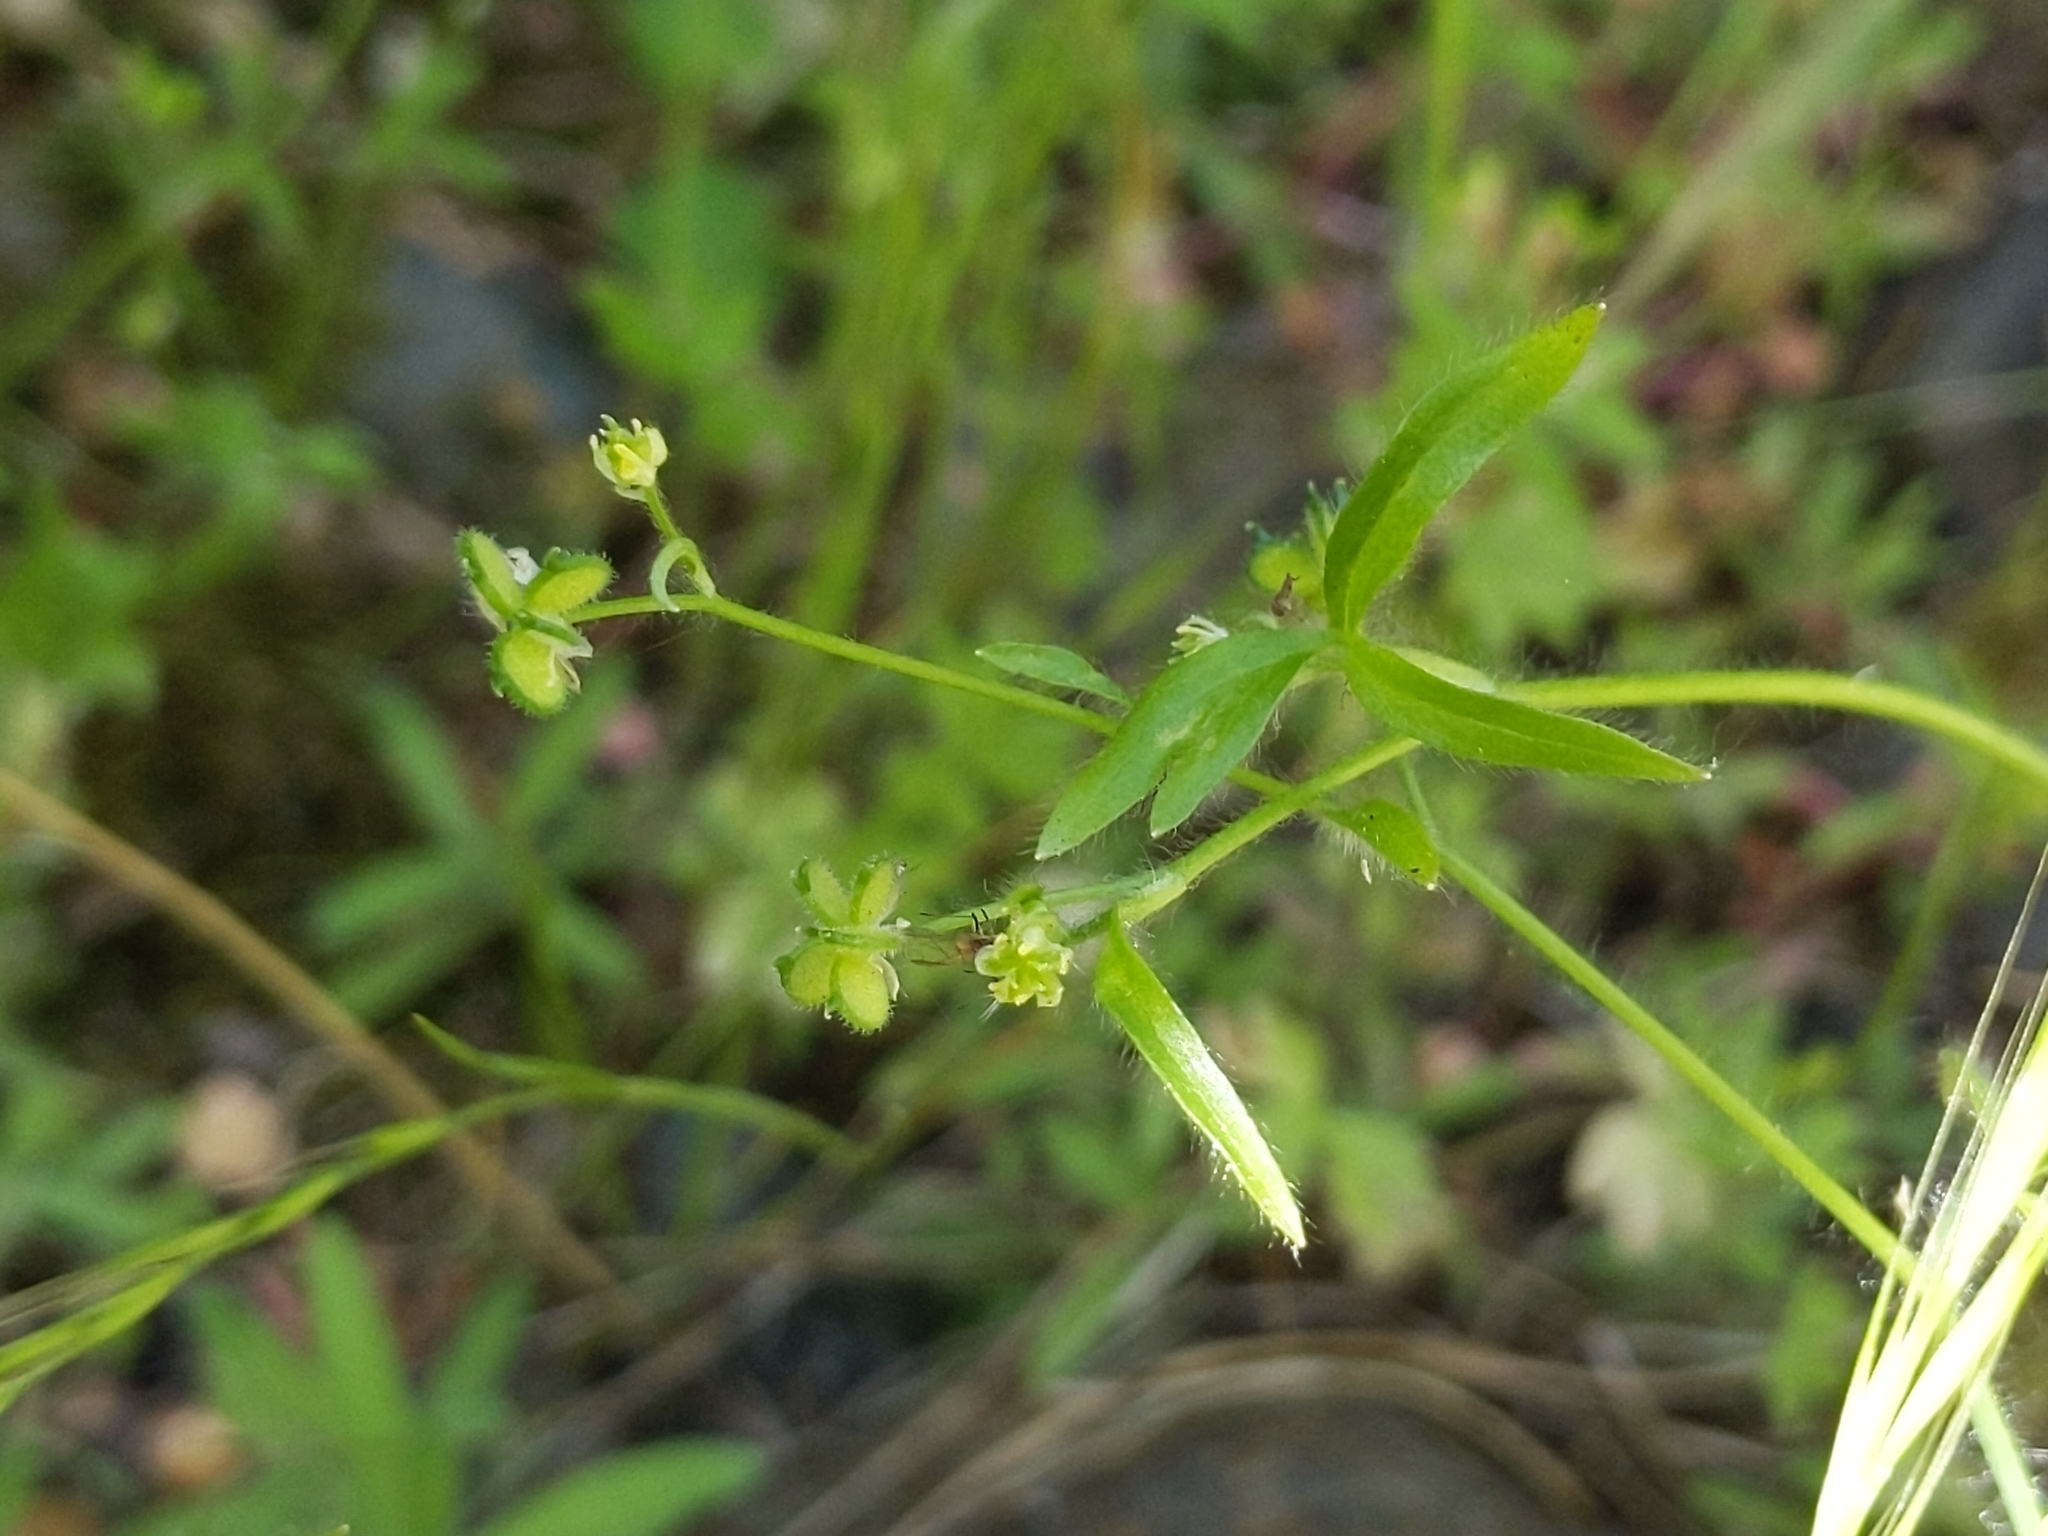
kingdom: Plantae
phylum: Tracheophyta
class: Magnoliopsida
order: Ranunculales
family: Ranunculaceae
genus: Ranunculus
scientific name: Ranunculus hebecarpus
